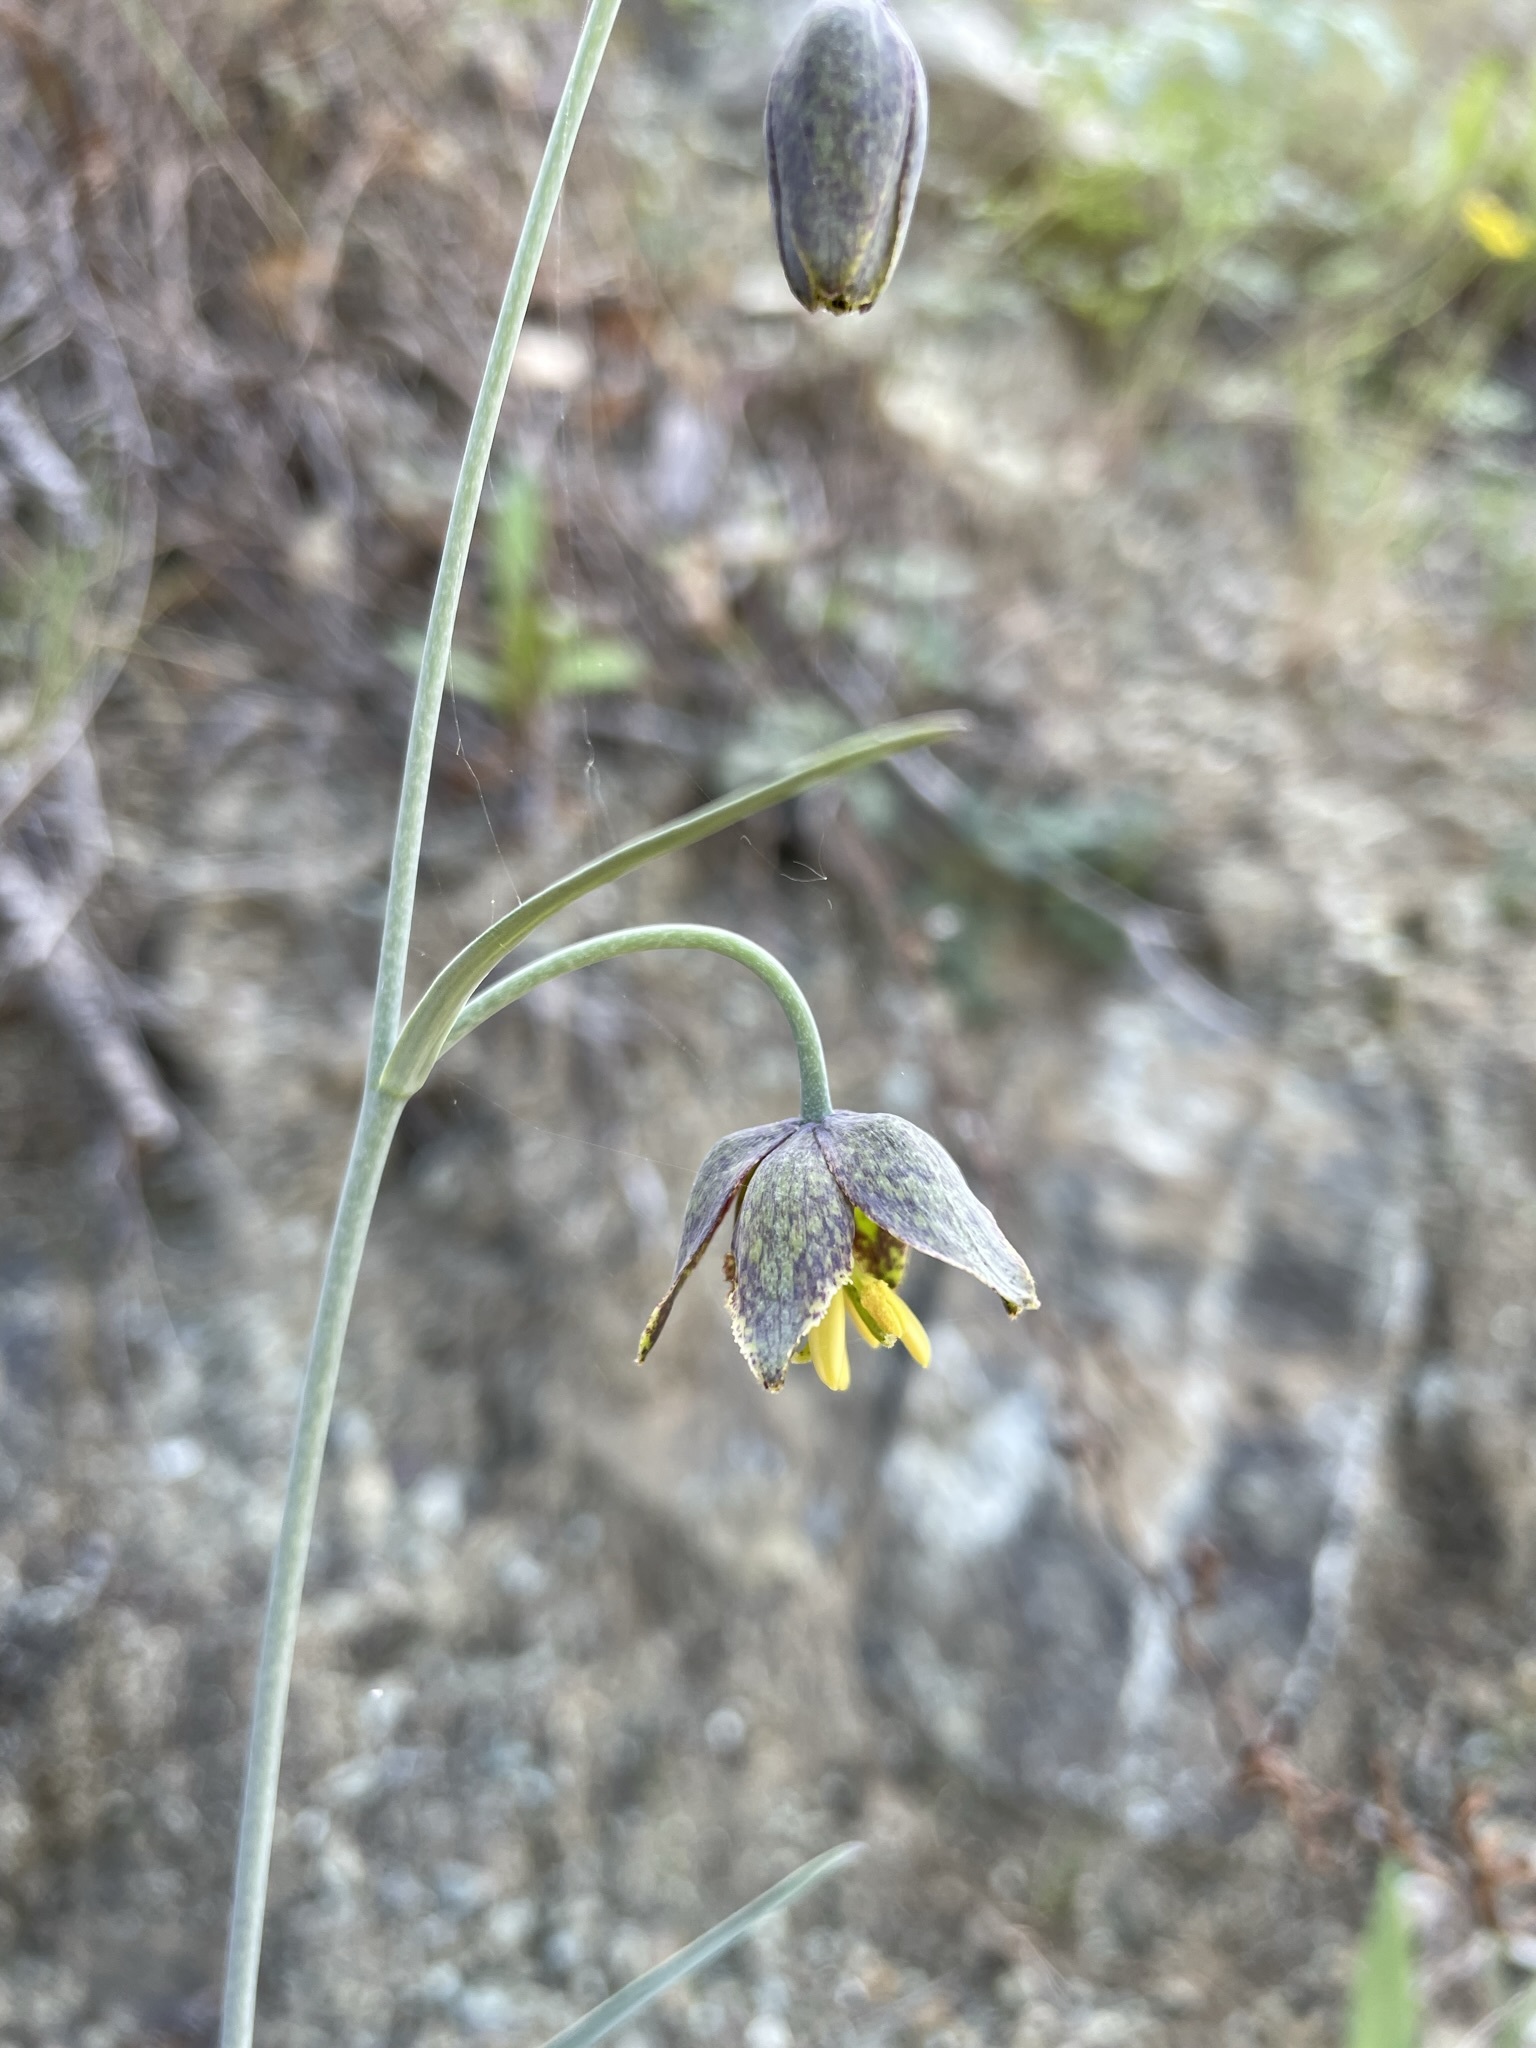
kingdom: Plantae
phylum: Tracheophyta
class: Liliopsida
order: Liliales
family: Liliaceae
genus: Fritillaria
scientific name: Fritillaria ojaiensis
